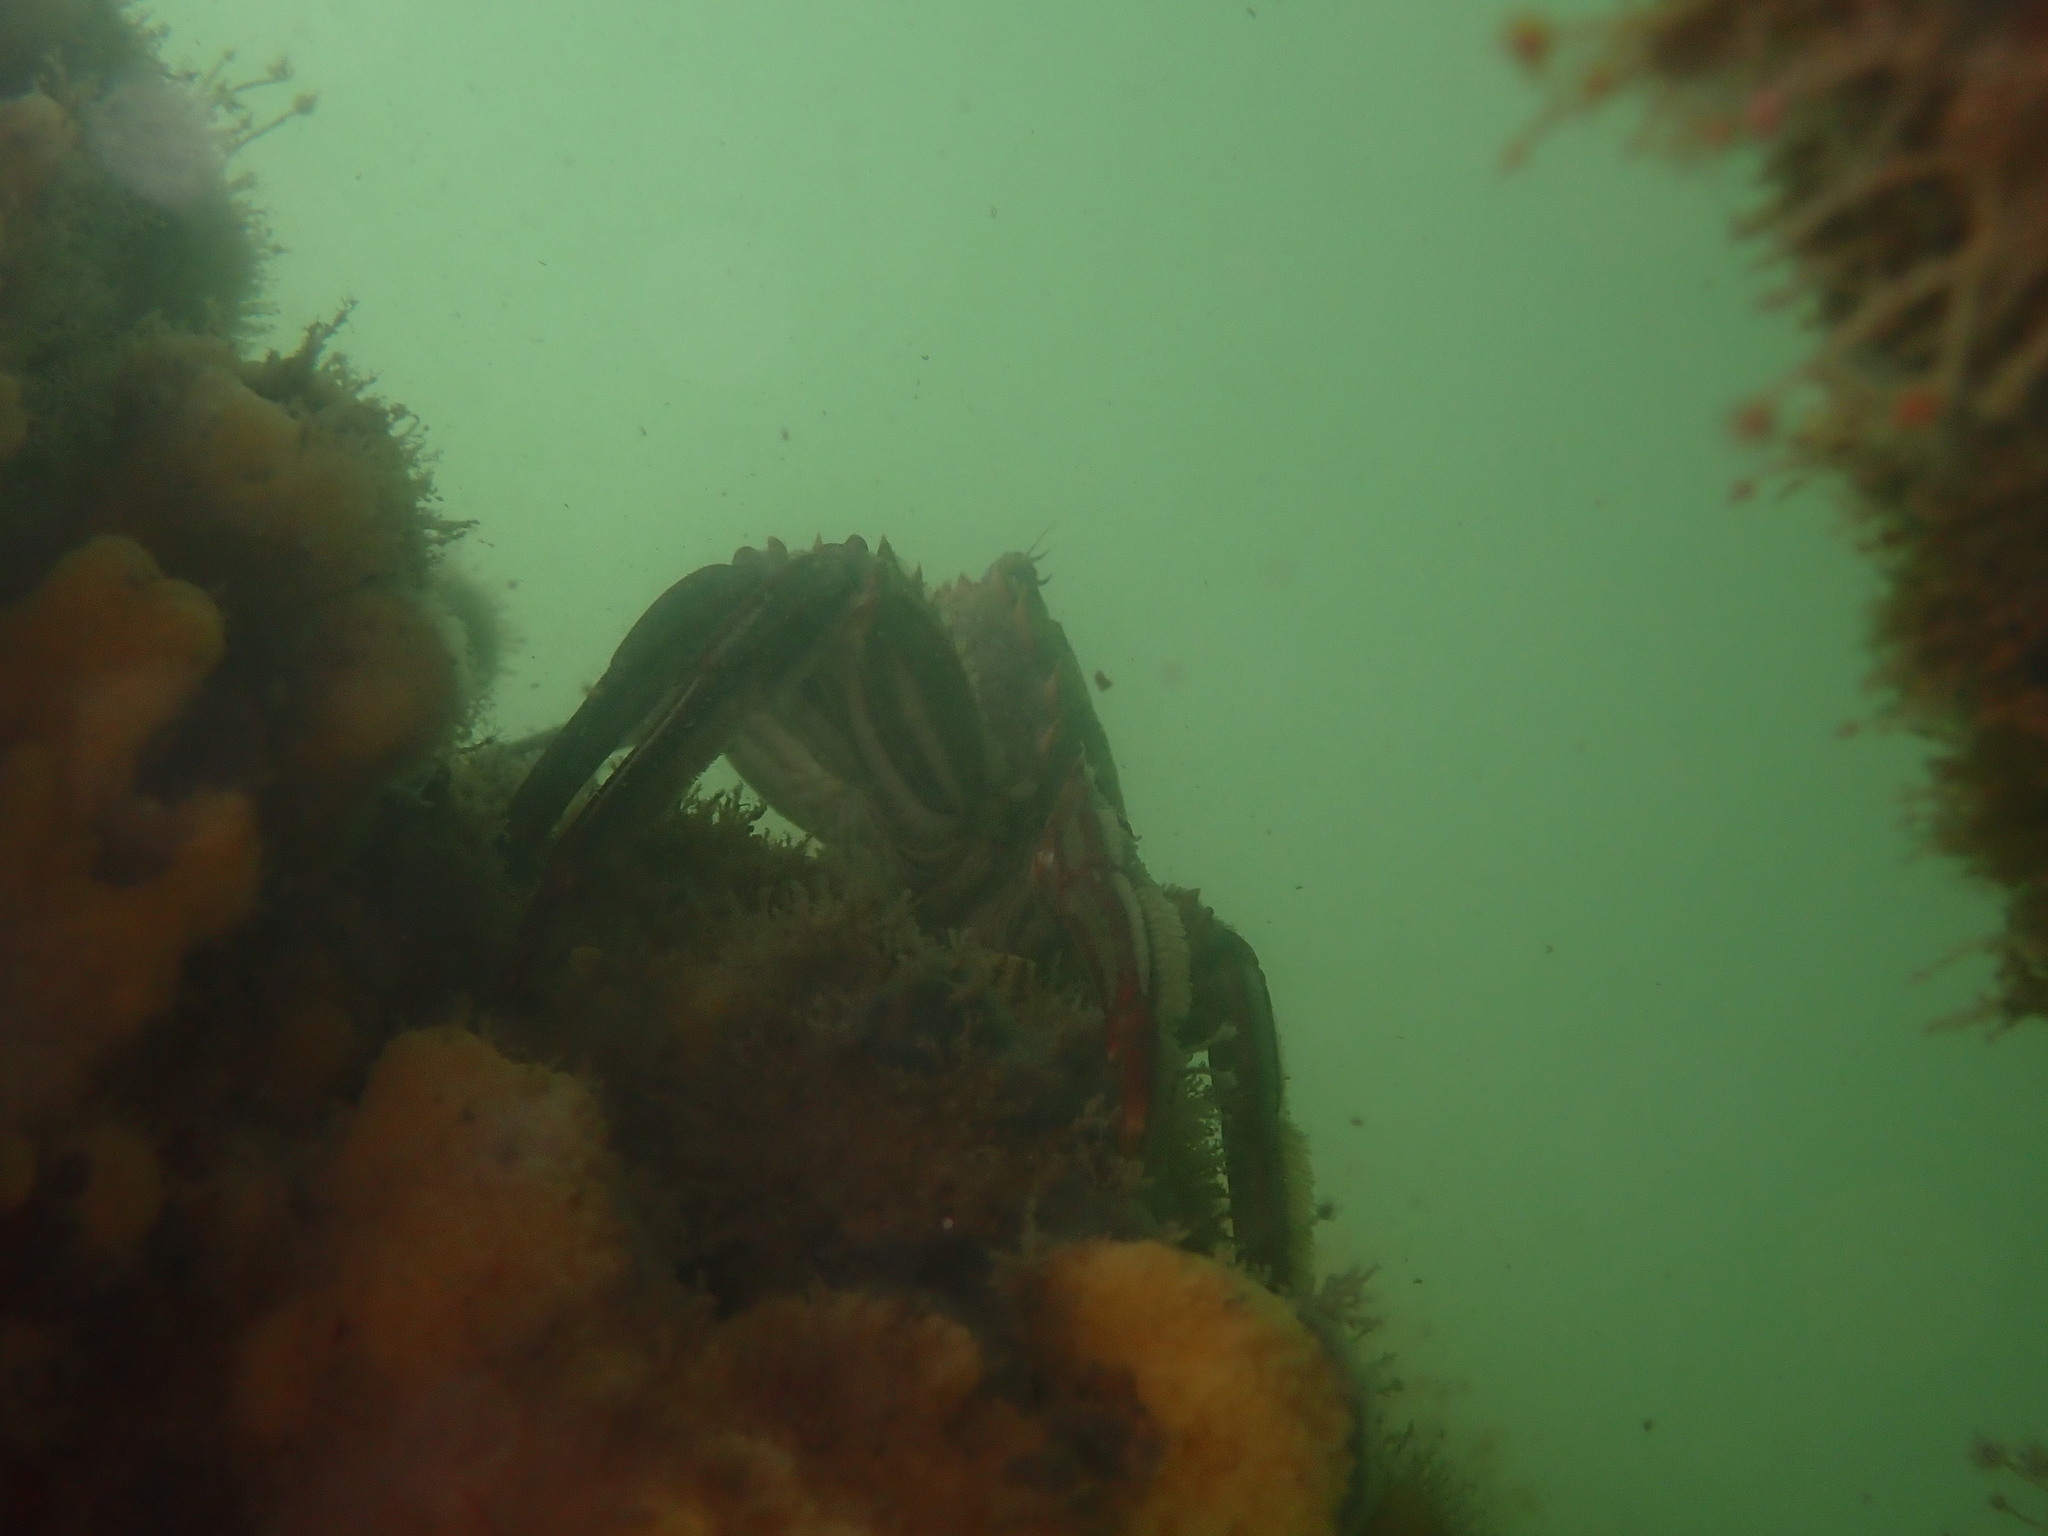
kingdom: Animalia
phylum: Arthropoda
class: Malacostraca
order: Decapoda
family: Plagusiidae
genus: Guinusia
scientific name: Guinusia chabrus
